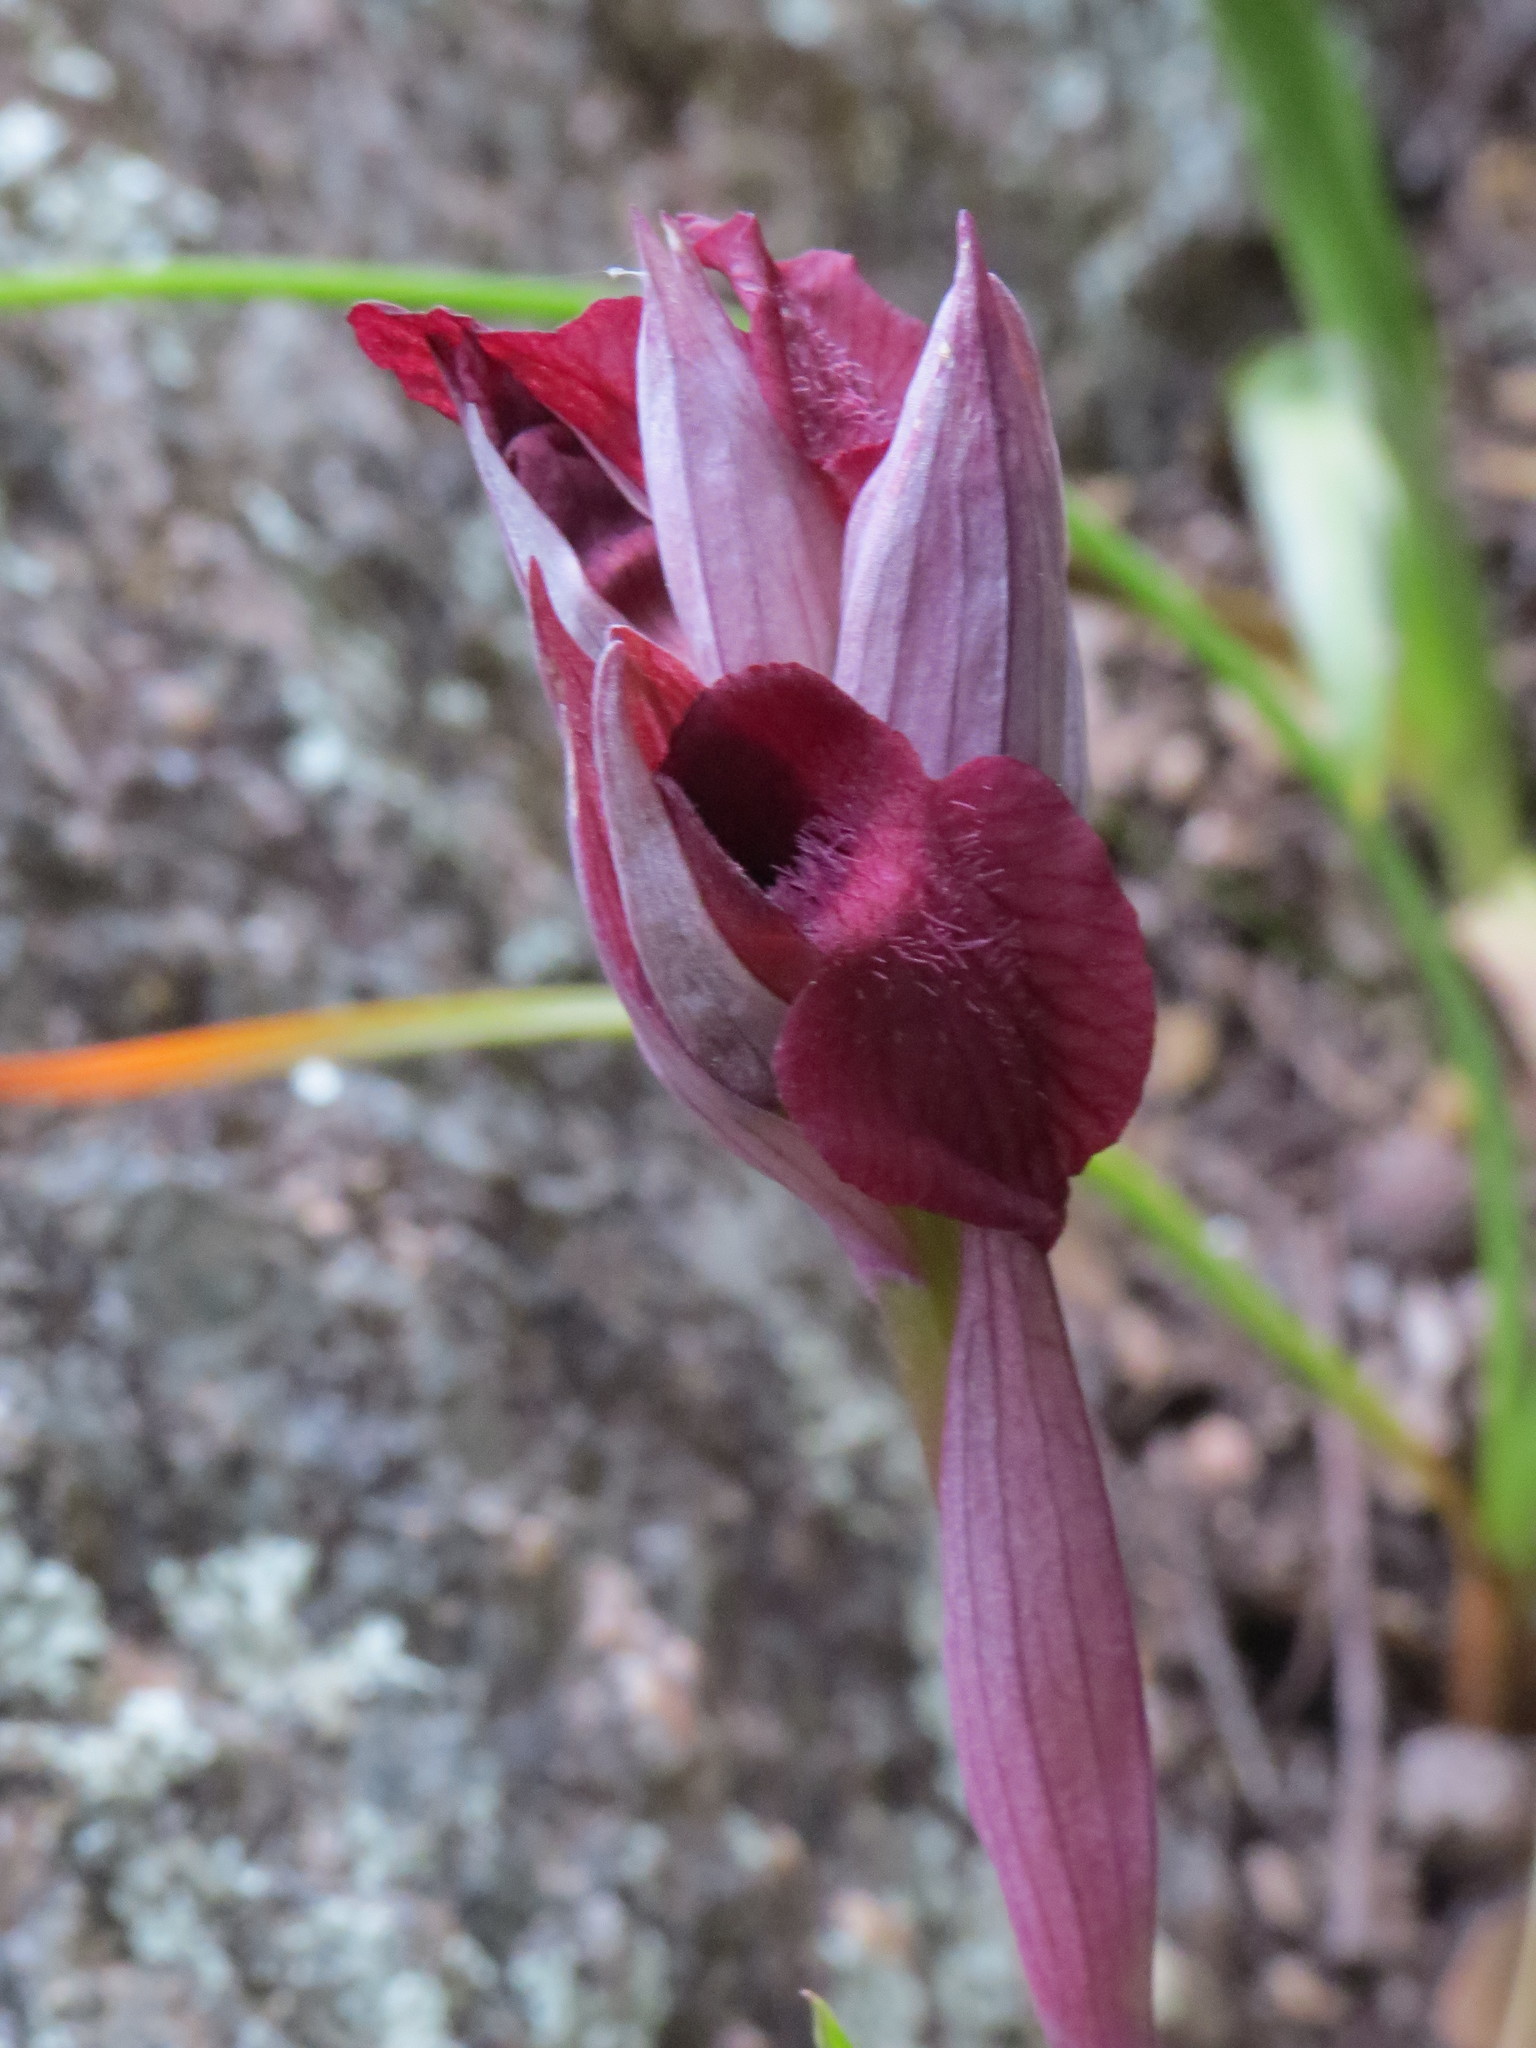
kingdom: Plantae
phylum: Tracheophyta
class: Liliopsida
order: Asparagales
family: Orchidaceae
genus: Serapias
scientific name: Serapias cordigera
